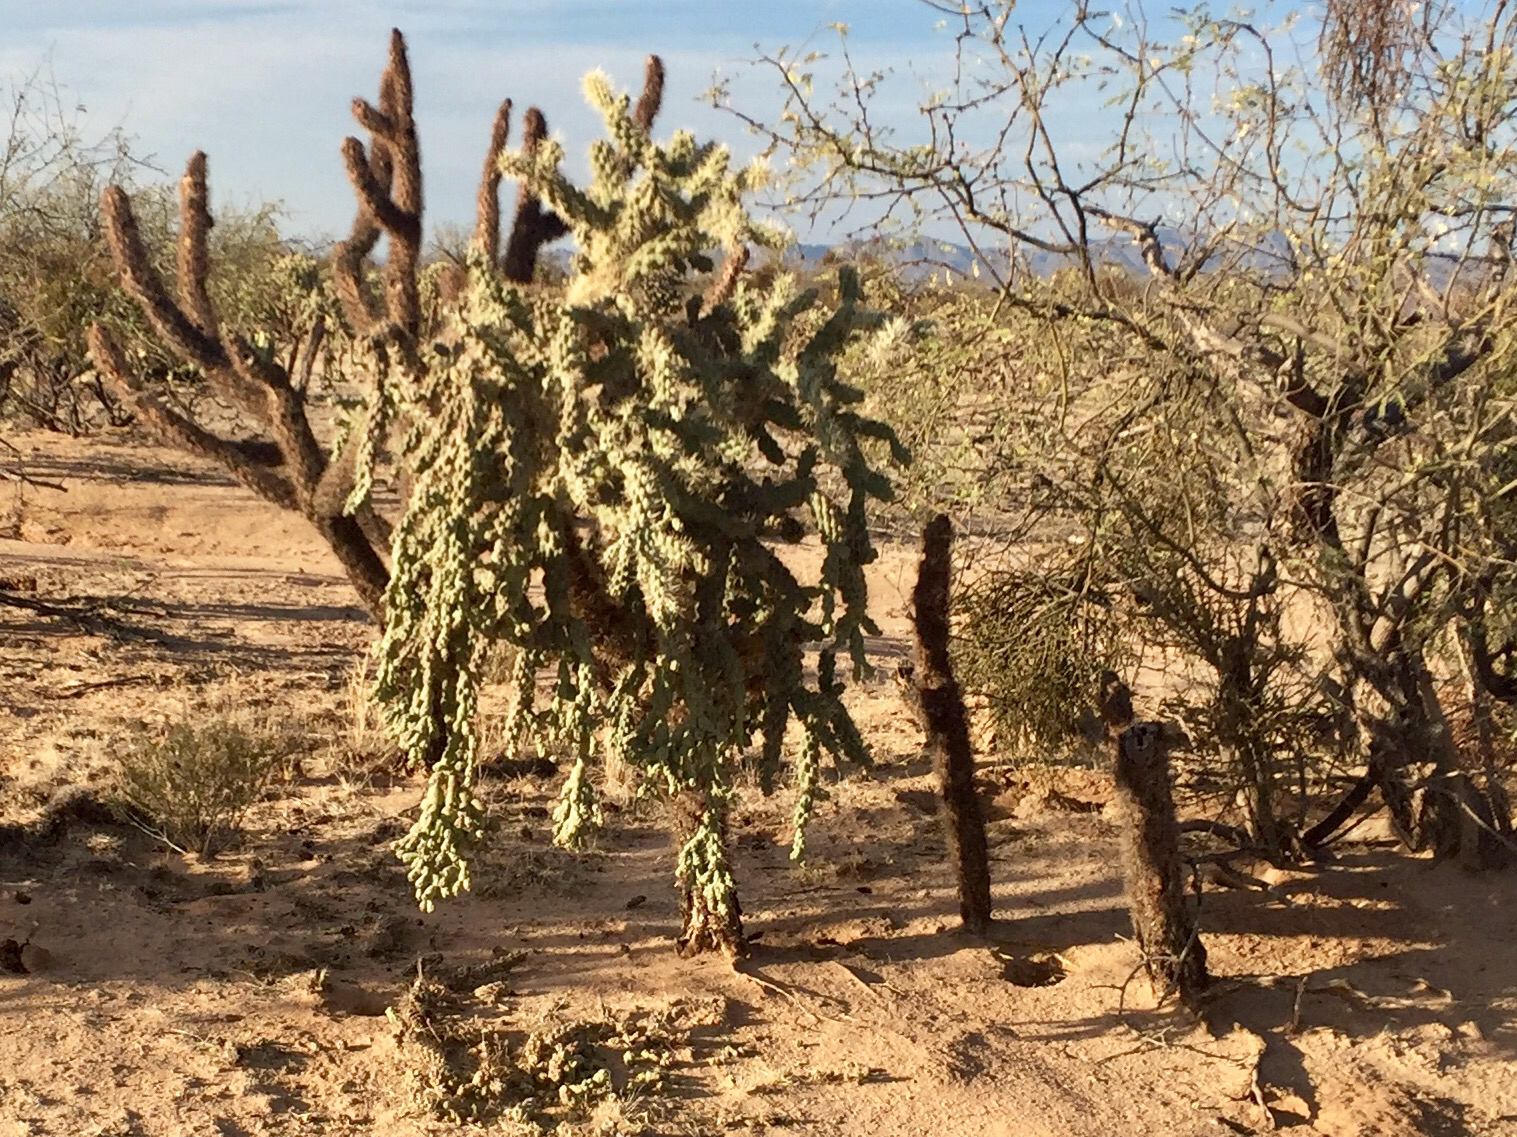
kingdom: Plantae
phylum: Tracheophyta
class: Magnoliopsida
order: Caryophyllales
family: Cactaceae
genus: Cylindropuntia
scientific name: Cylindropuntia fulgida
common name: Jumping cholla
